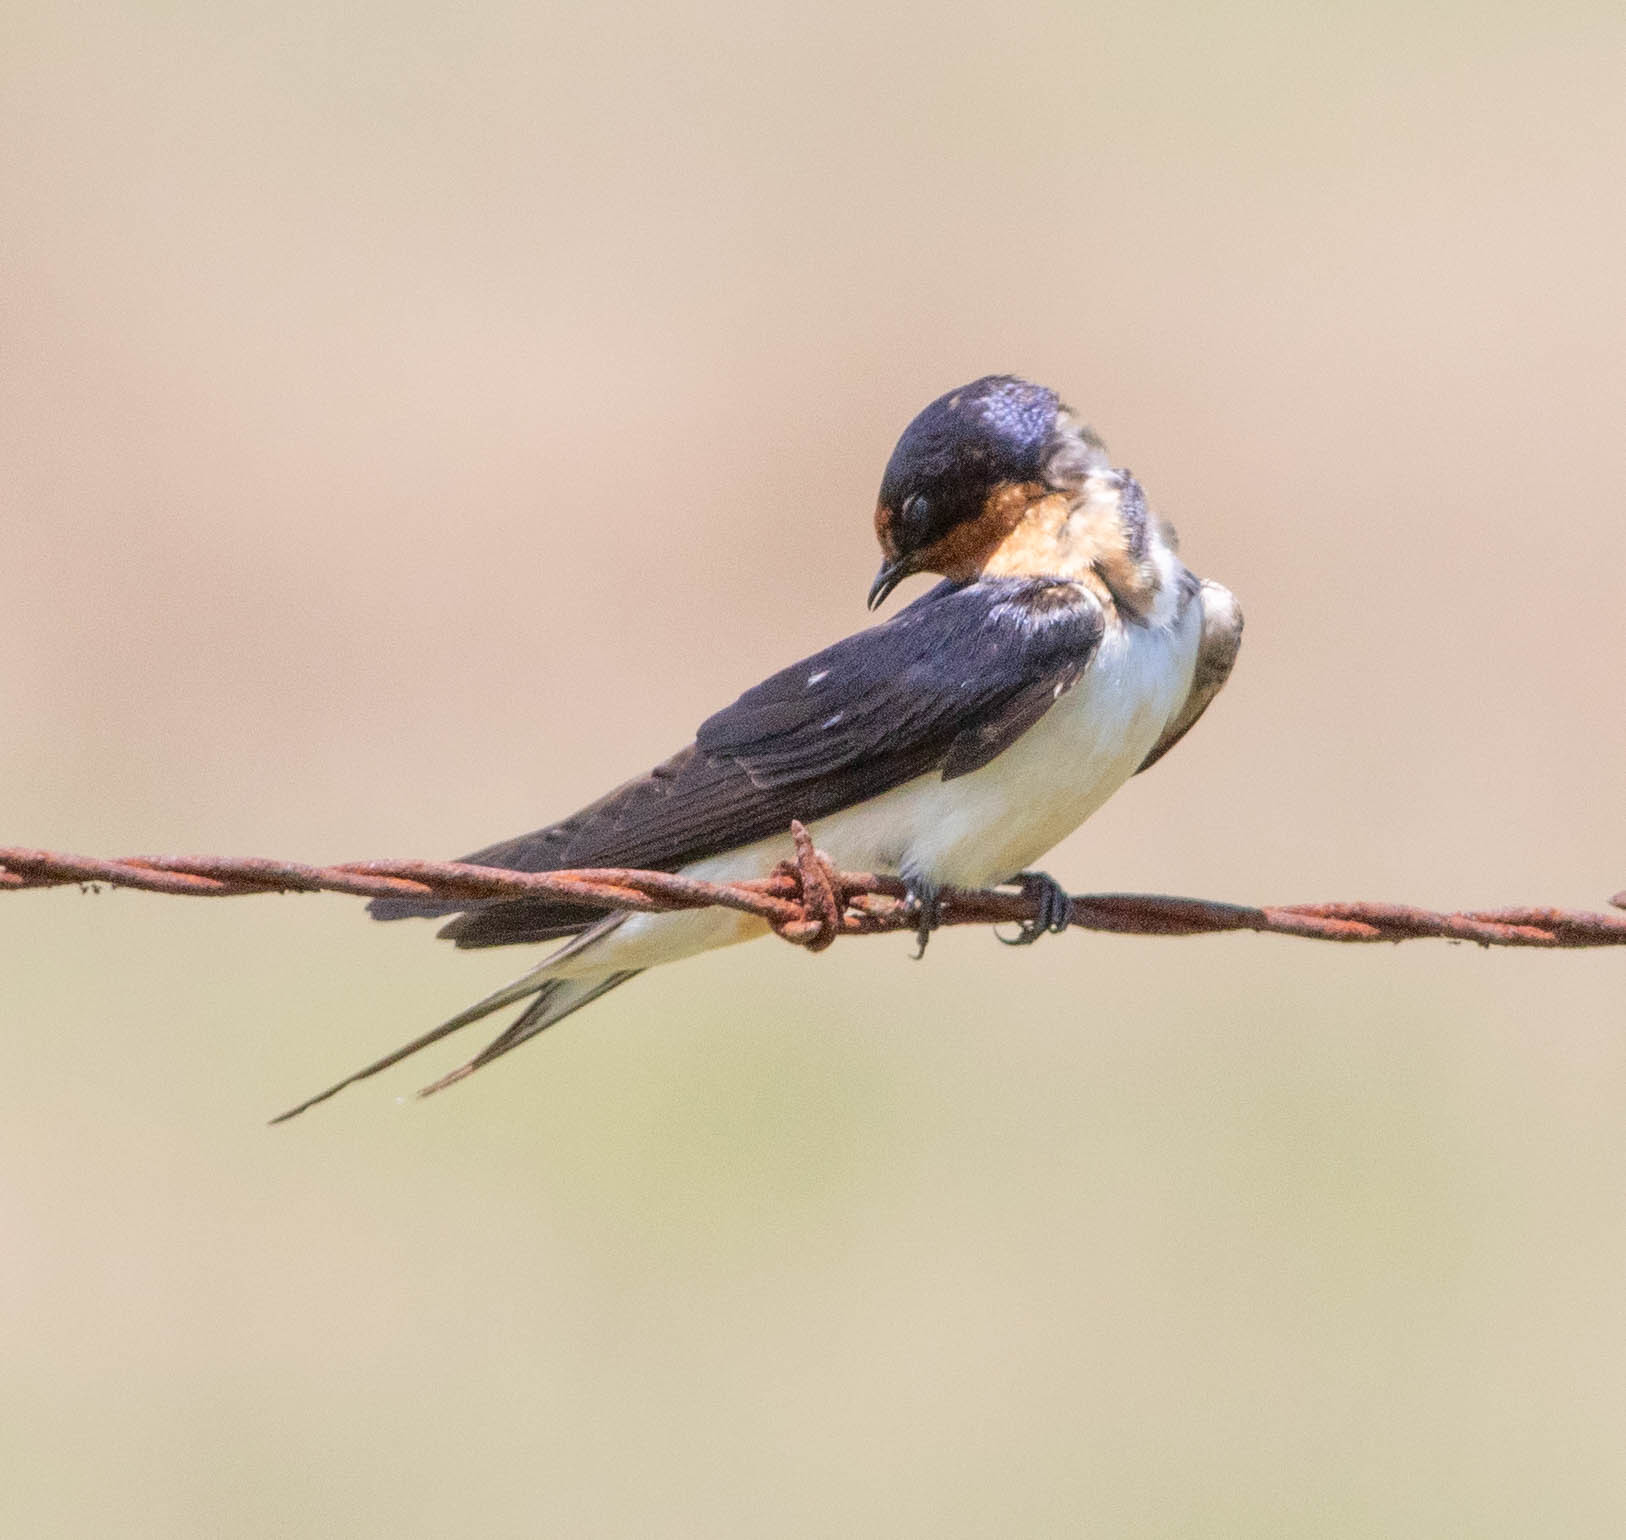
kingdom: Animalia
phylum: Chordata
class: Aves
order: Passeriformes
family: Hirundinidae
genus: Hirundo
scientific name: Hirundo rustica
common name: Barn swallow
